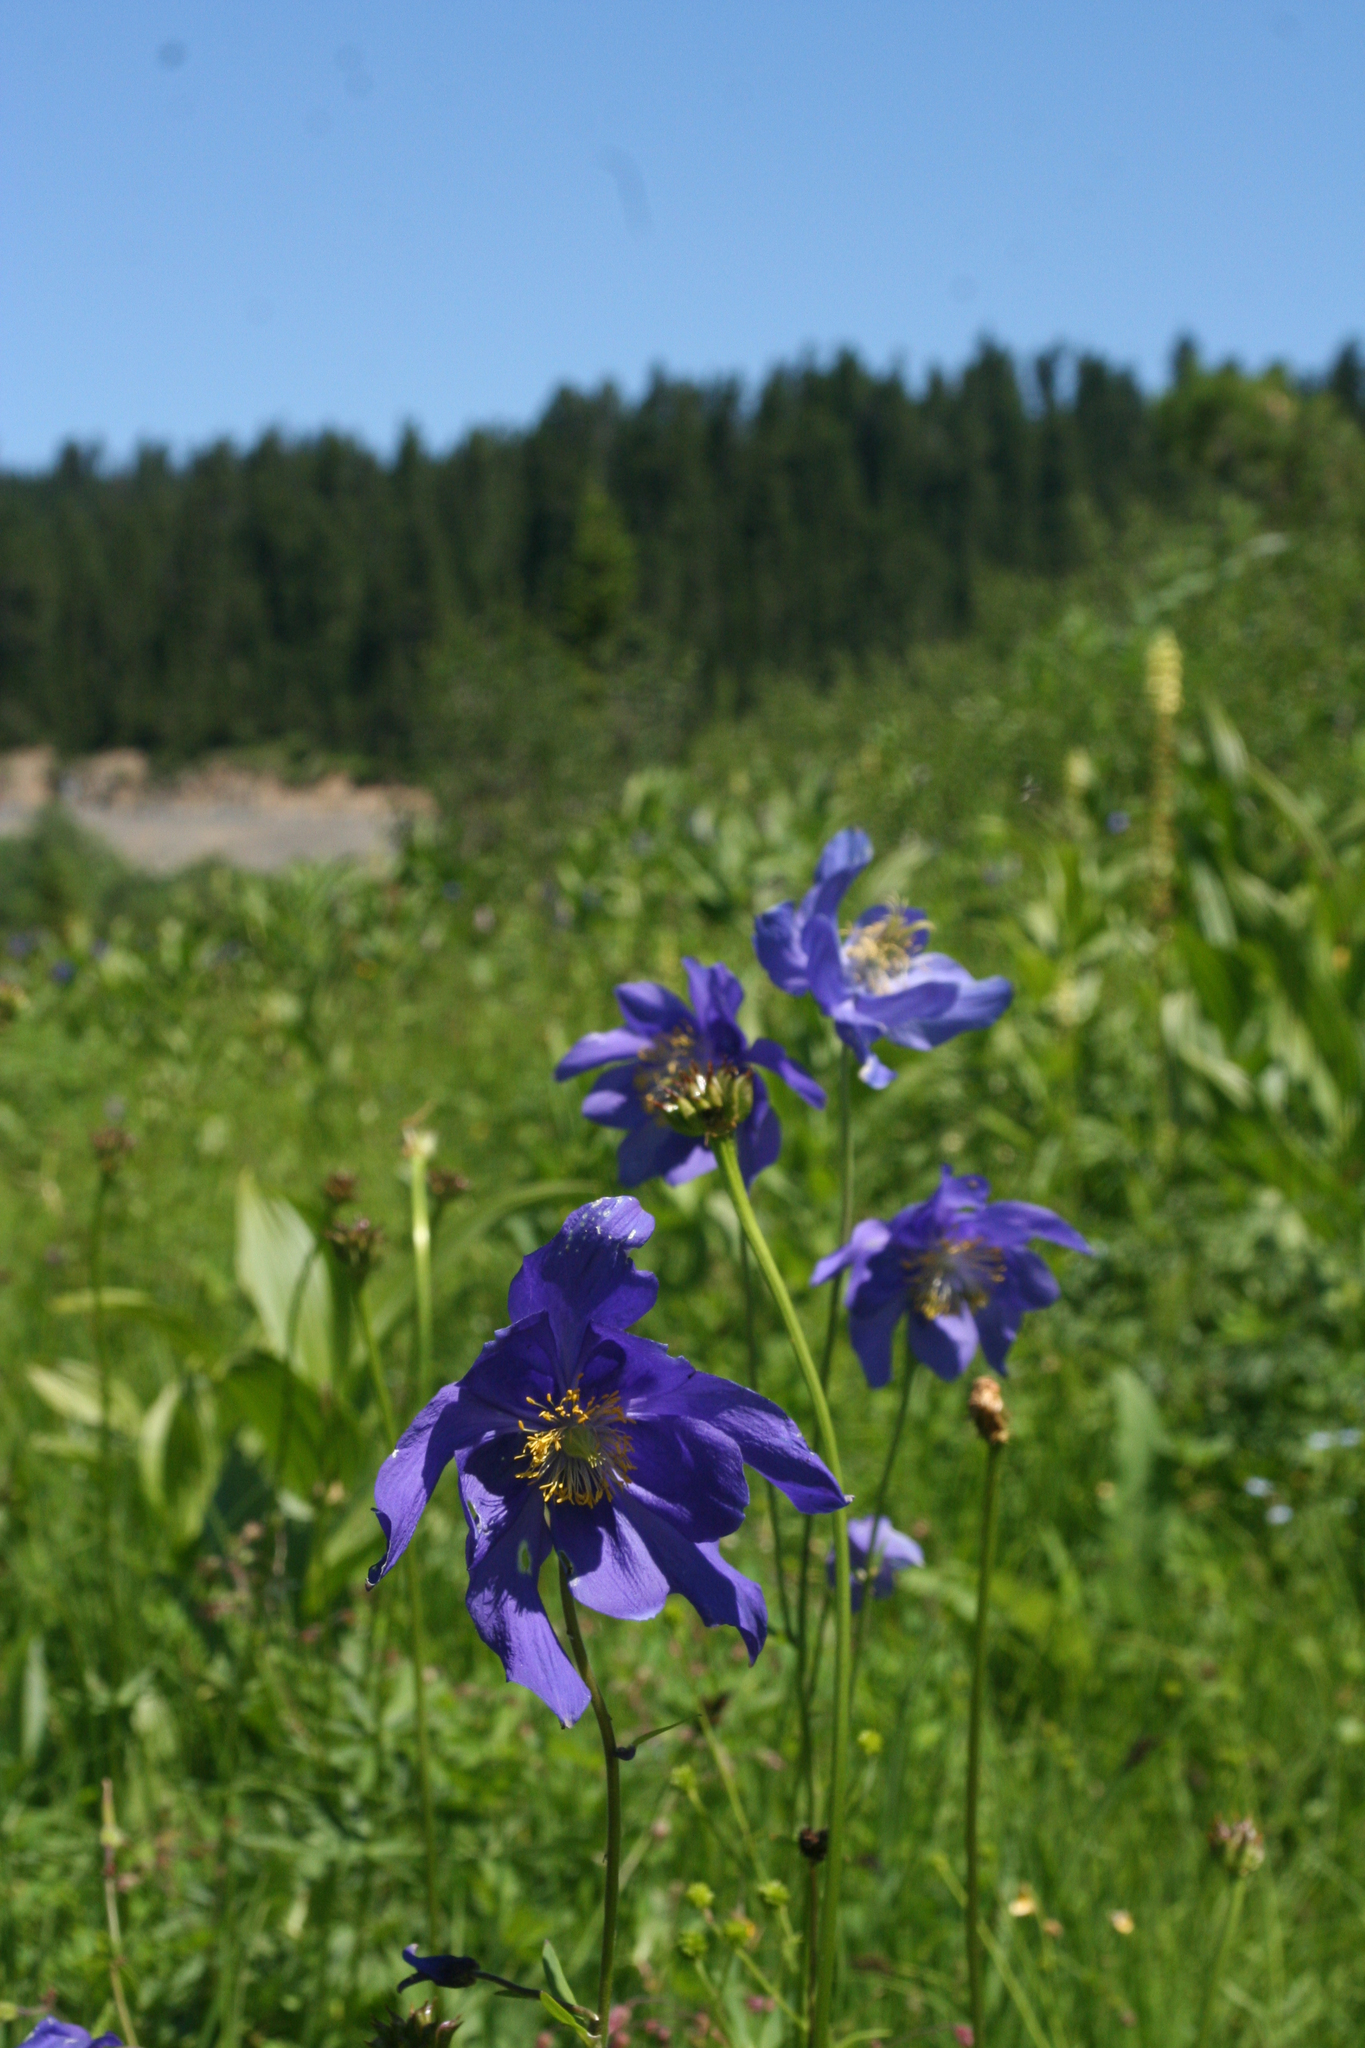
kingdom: Plantae
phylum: Tracheophyta
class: Magnoliopsida
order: Ranunculales
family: Ranunculaceae
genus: Aquilegia
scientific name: Aquilegia glandulosa
